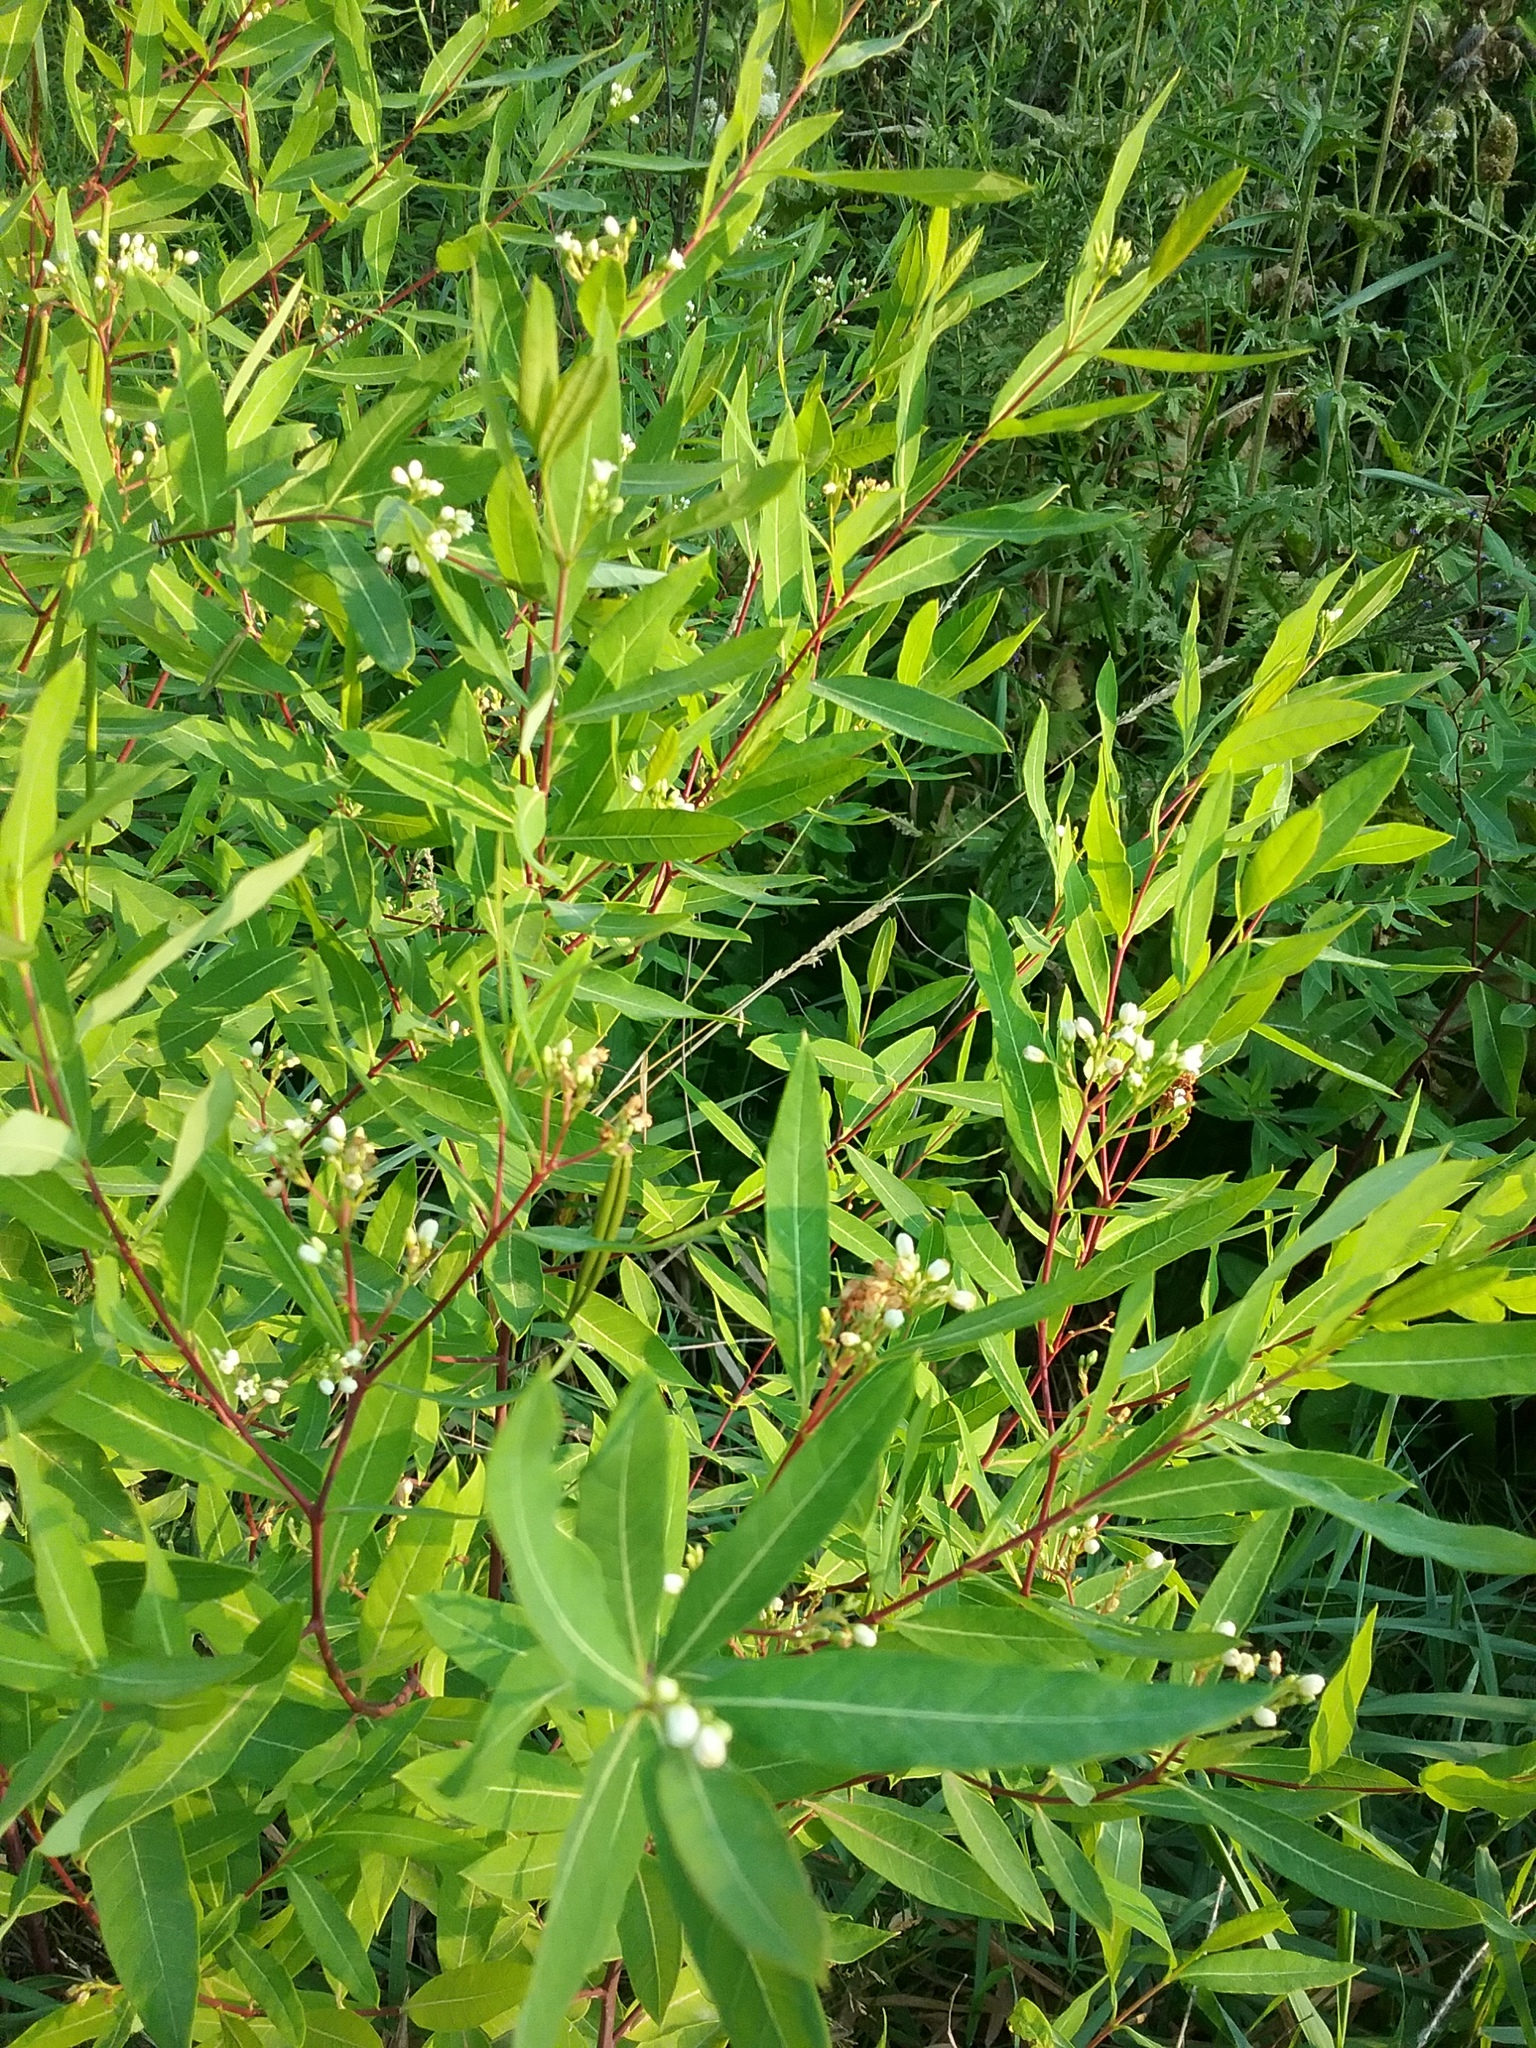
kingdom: Plantae
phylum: Tracheophyta
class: Magnoliopsida
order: Gentianales
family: Apocynaceae
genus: Apocynum
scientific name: Apocynum cannabinum
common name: Hemp dogbane
